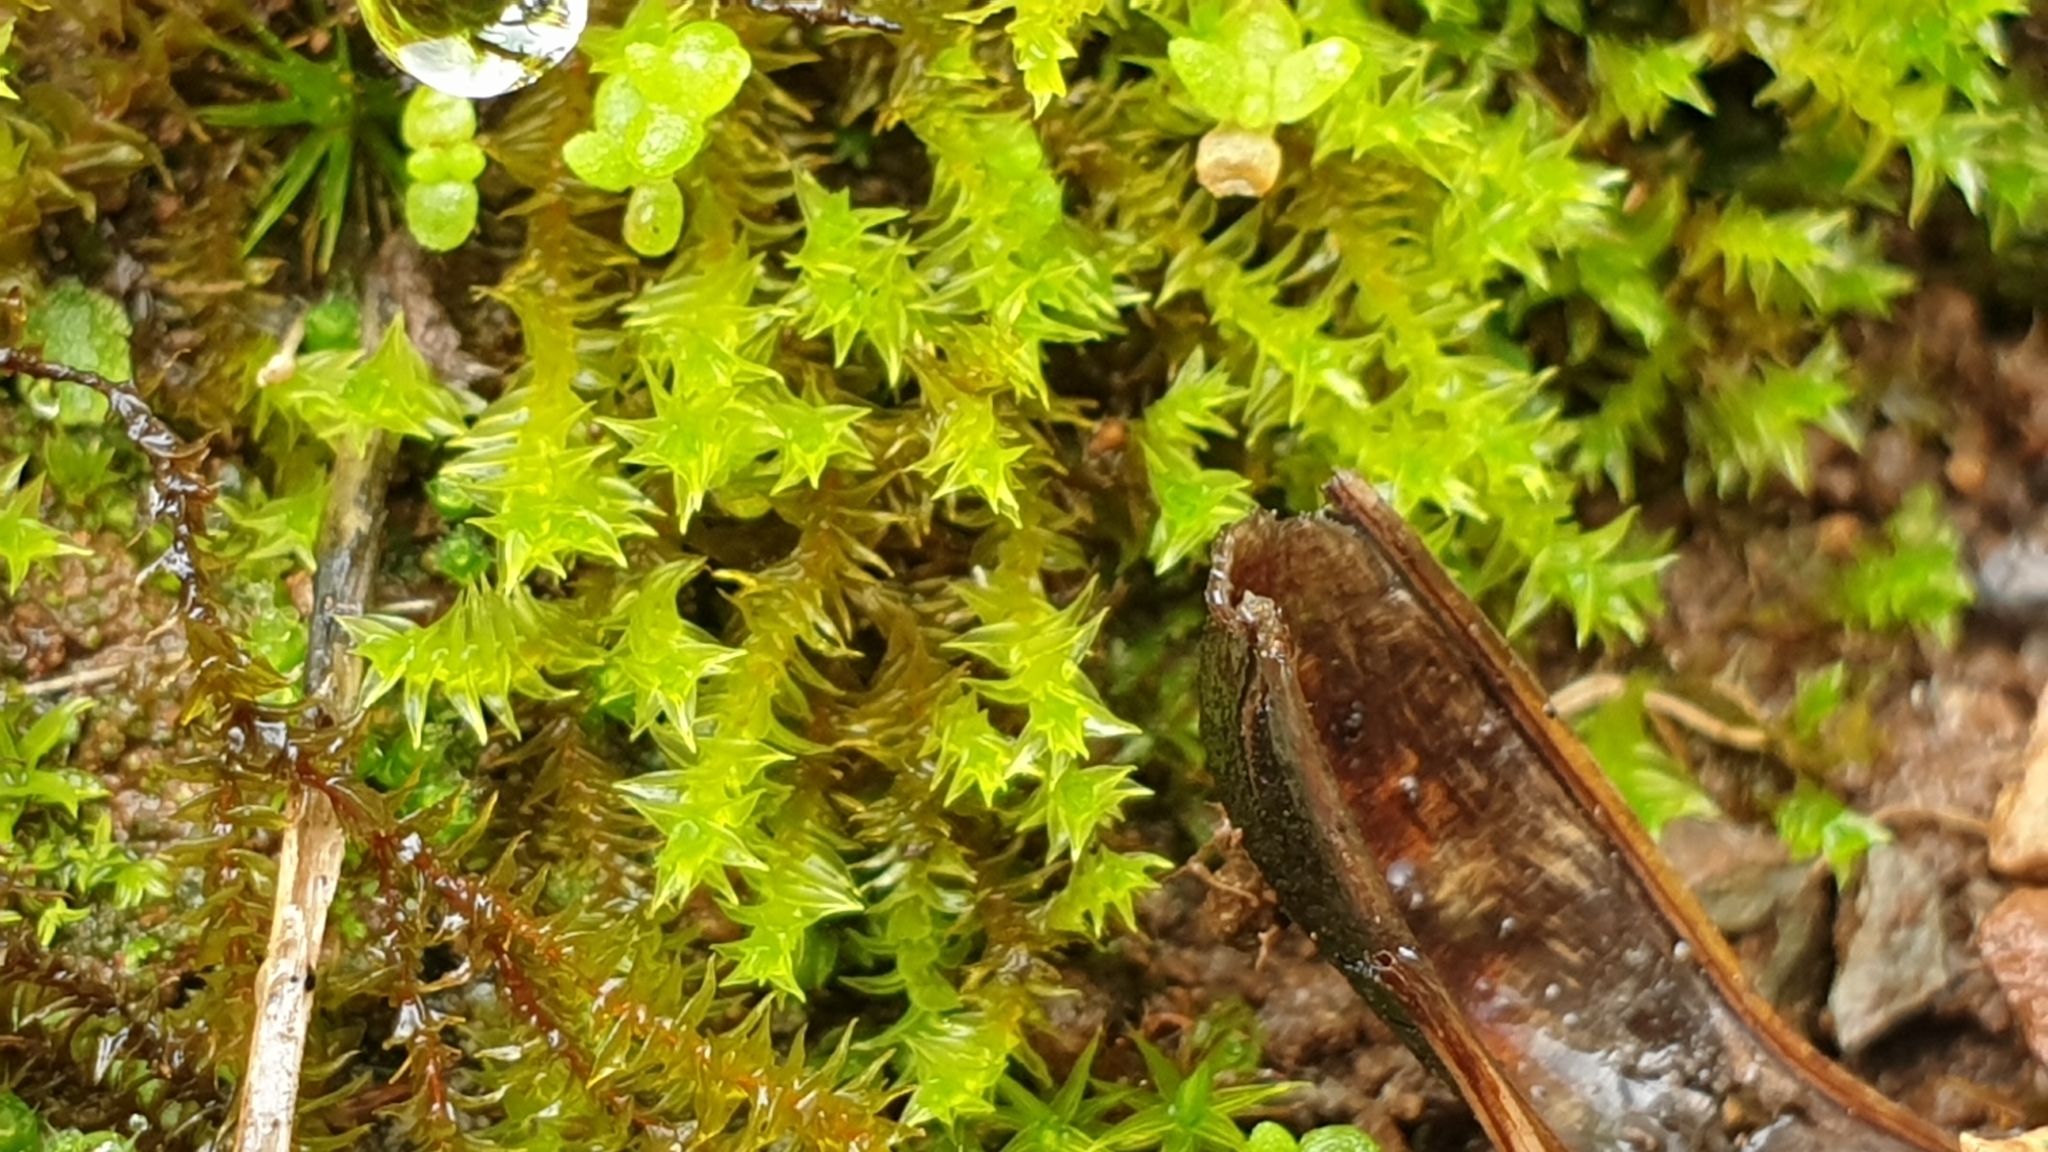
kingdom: Plantae
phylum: Bryophyta
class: Bryopsida
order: Pottiales
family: Pottiaceae
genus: Triquetrella
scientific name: Triquetrella papillata
